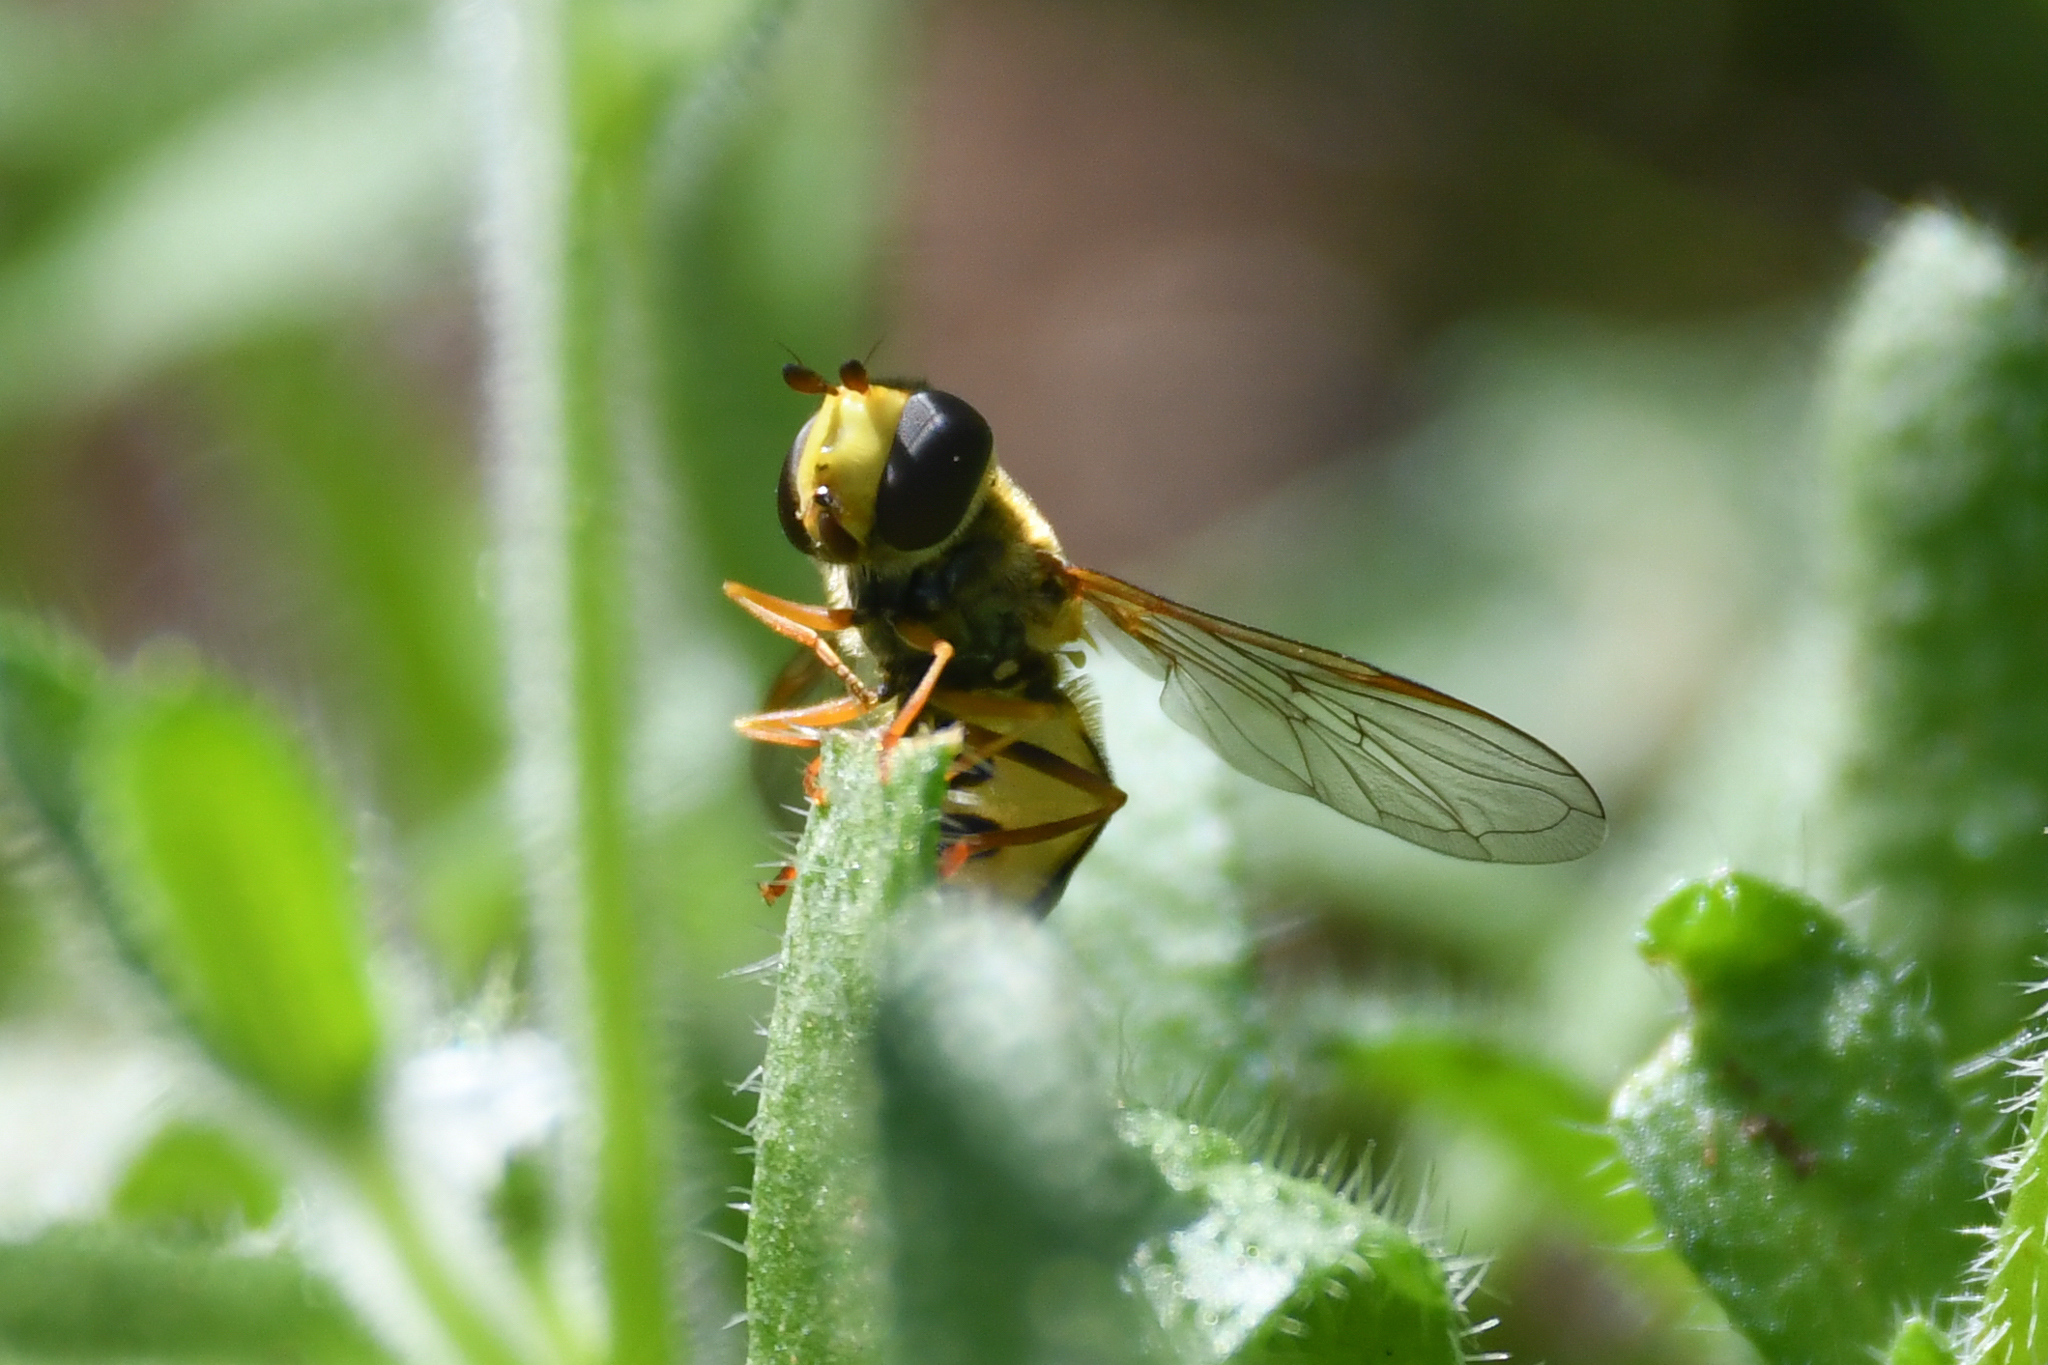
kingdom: Animalia
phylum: Arthropoda
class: Insecta
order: Diptera
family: Syrphidae
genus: Syrphus
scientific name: Syrphus opinator
